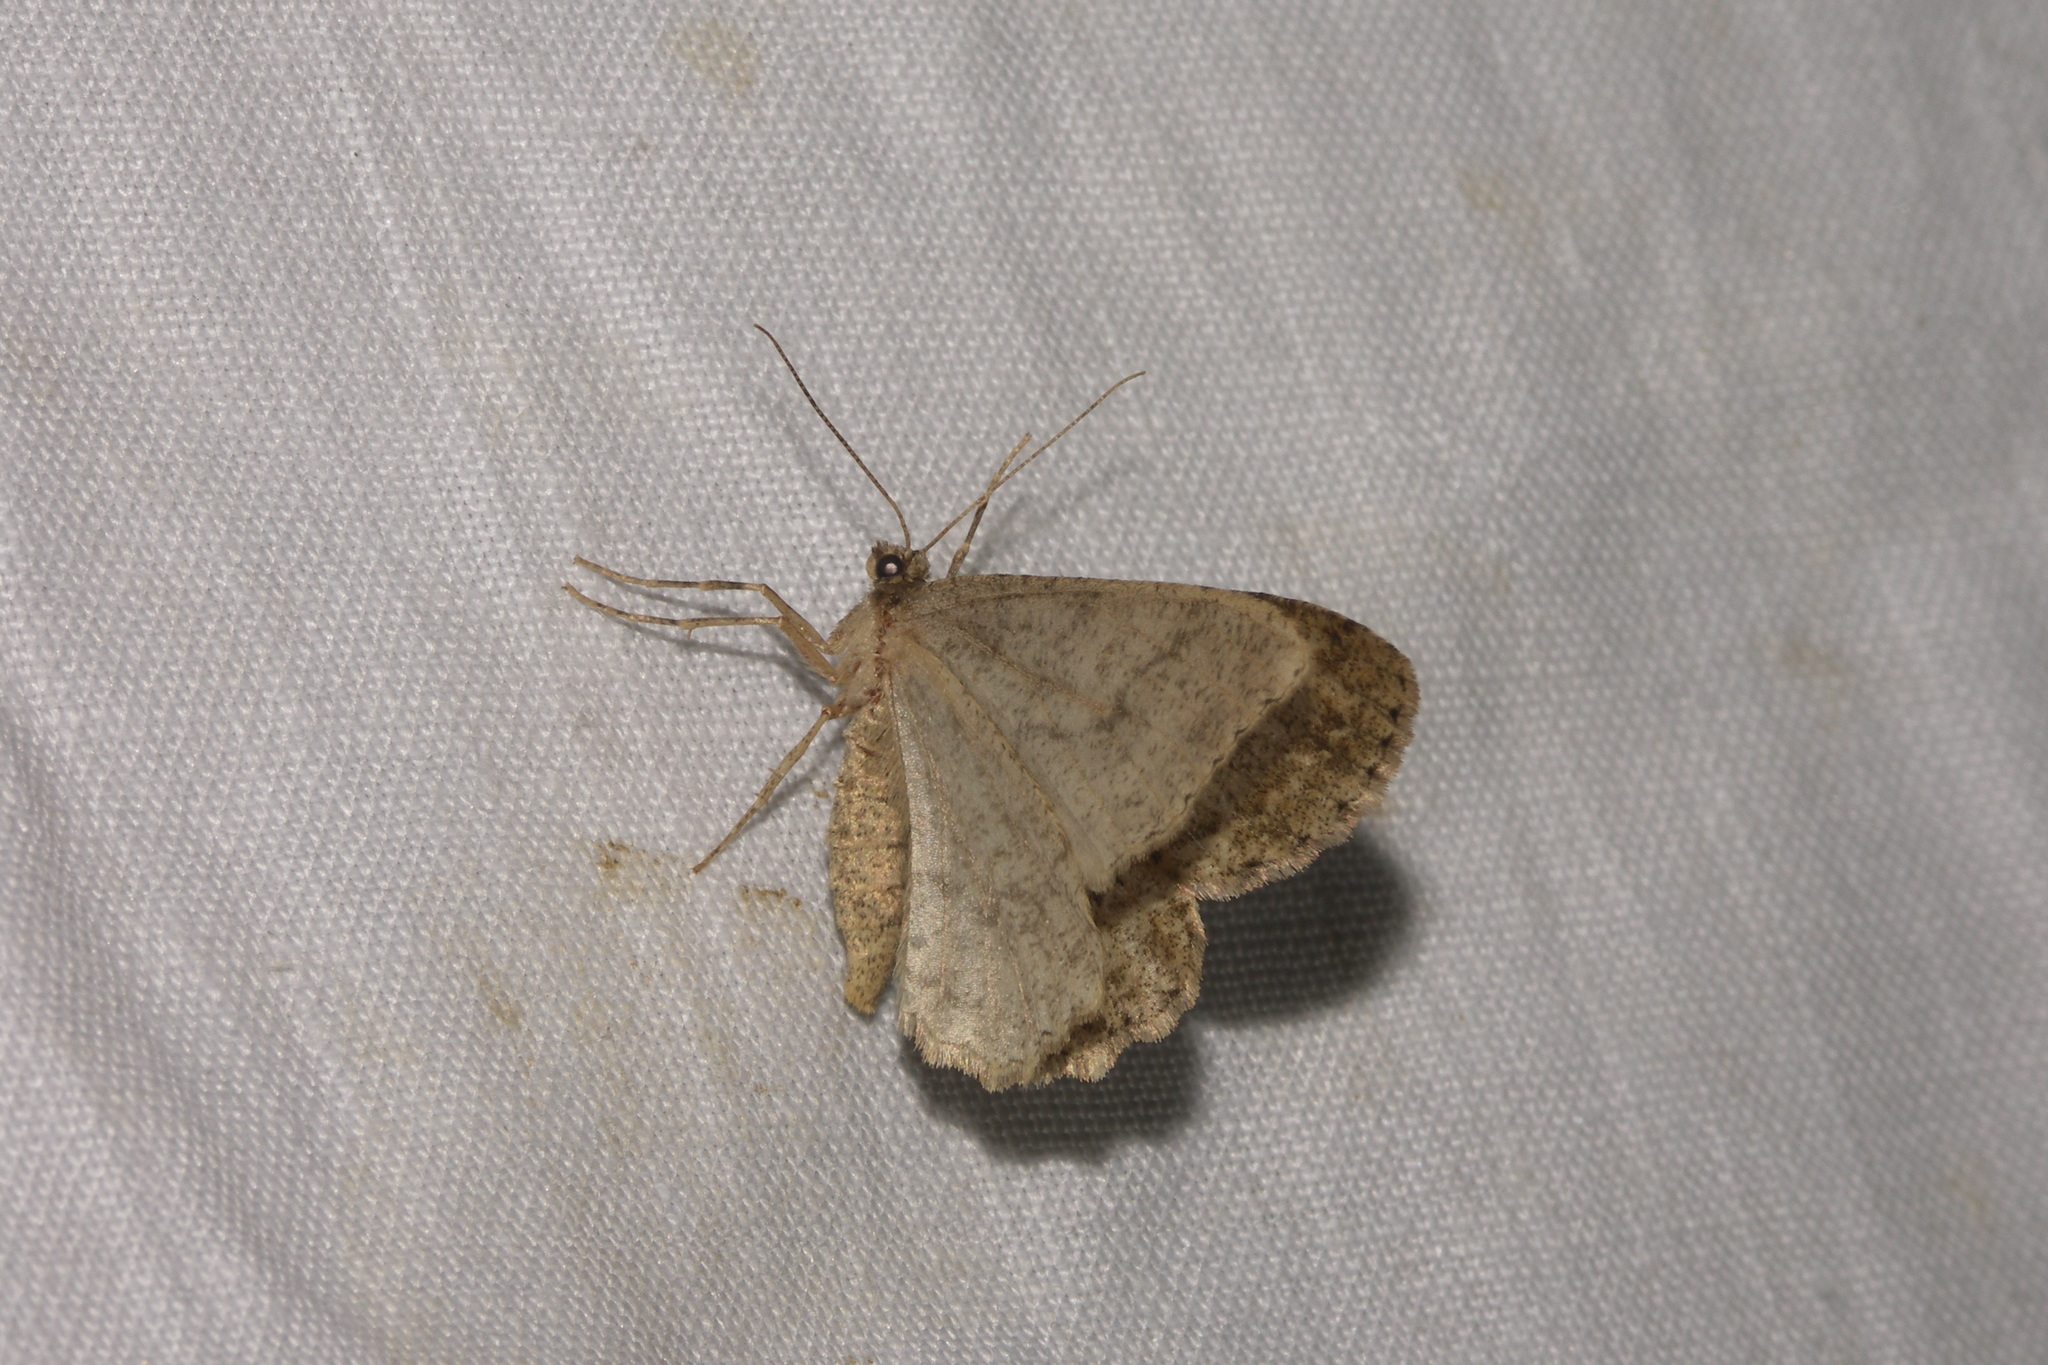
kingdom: Animalia
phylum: Arthropoda
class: Insecta
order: Lepidoptera
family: Geometridae
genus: Ectropis
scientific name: Ectropis crepuscularia
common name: Engrailed
